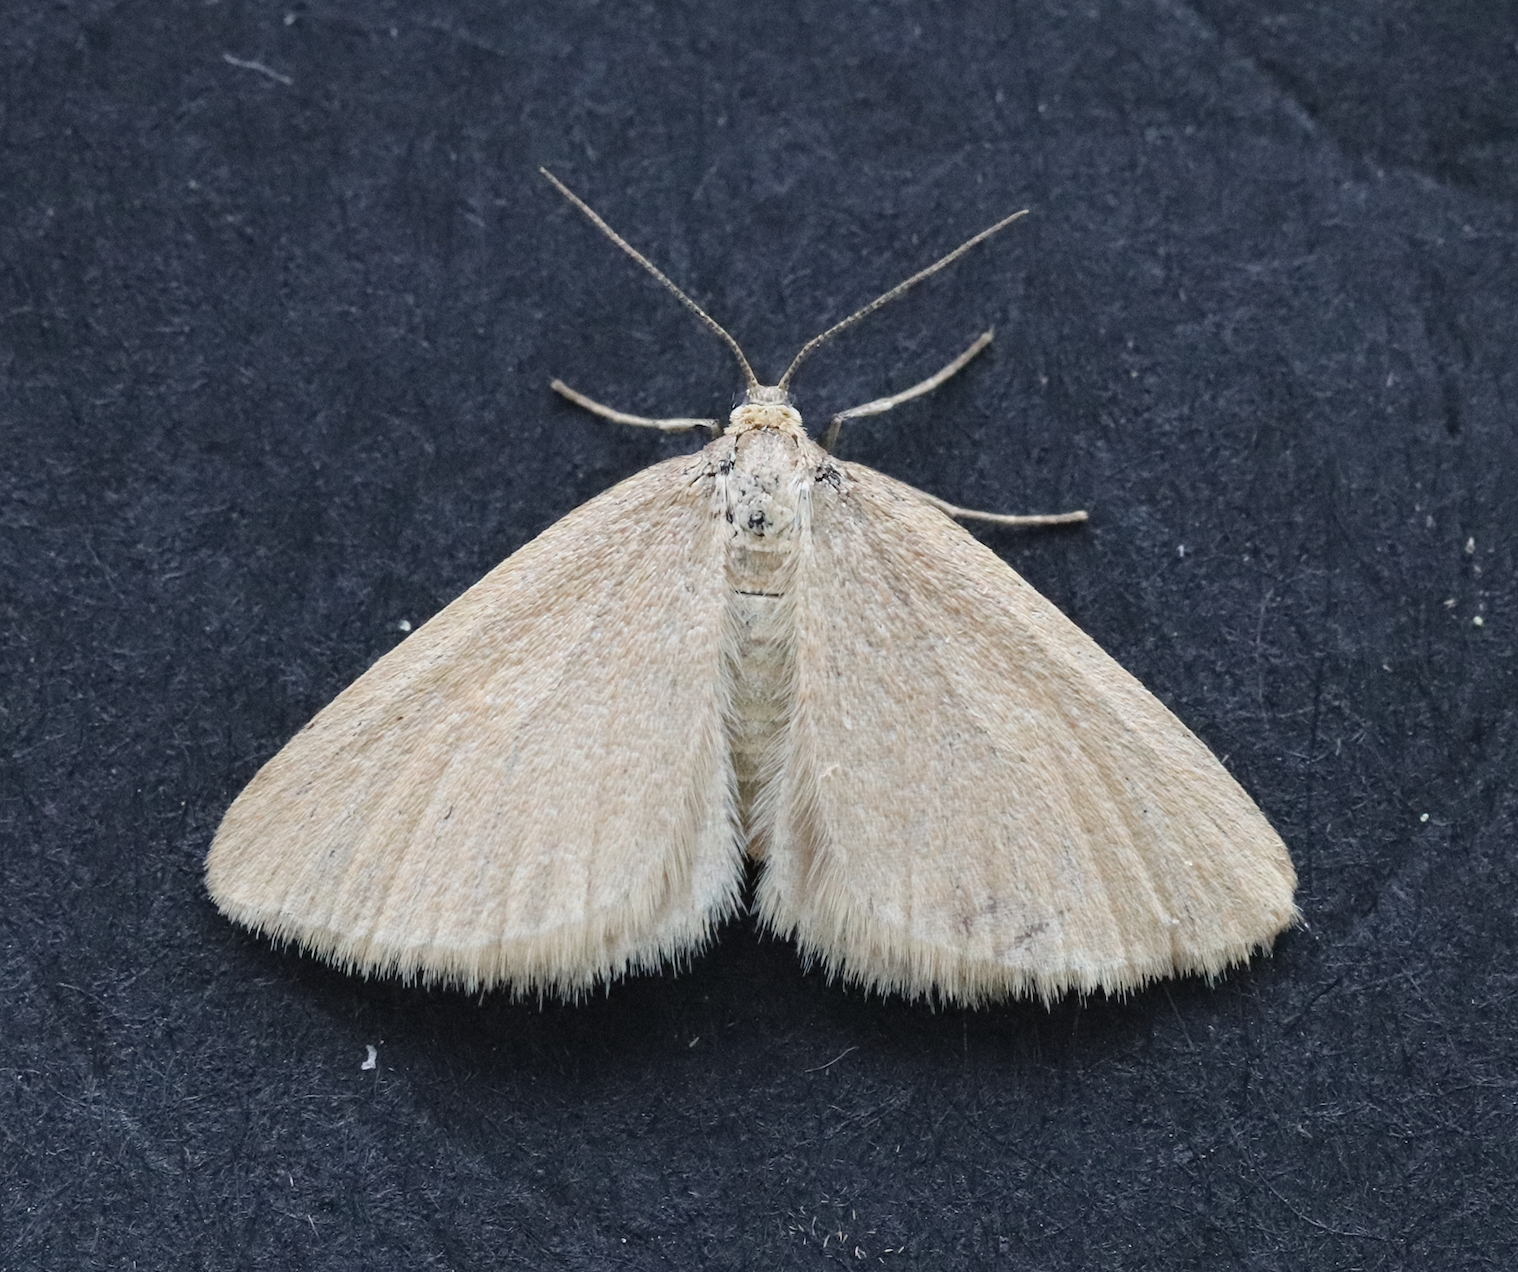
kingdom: Animalia
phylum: Arthropoda
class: Insecta
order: Lepidoptera
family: Geometridae
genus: Minoa
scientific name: Minoa murinata
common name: Drab looper
